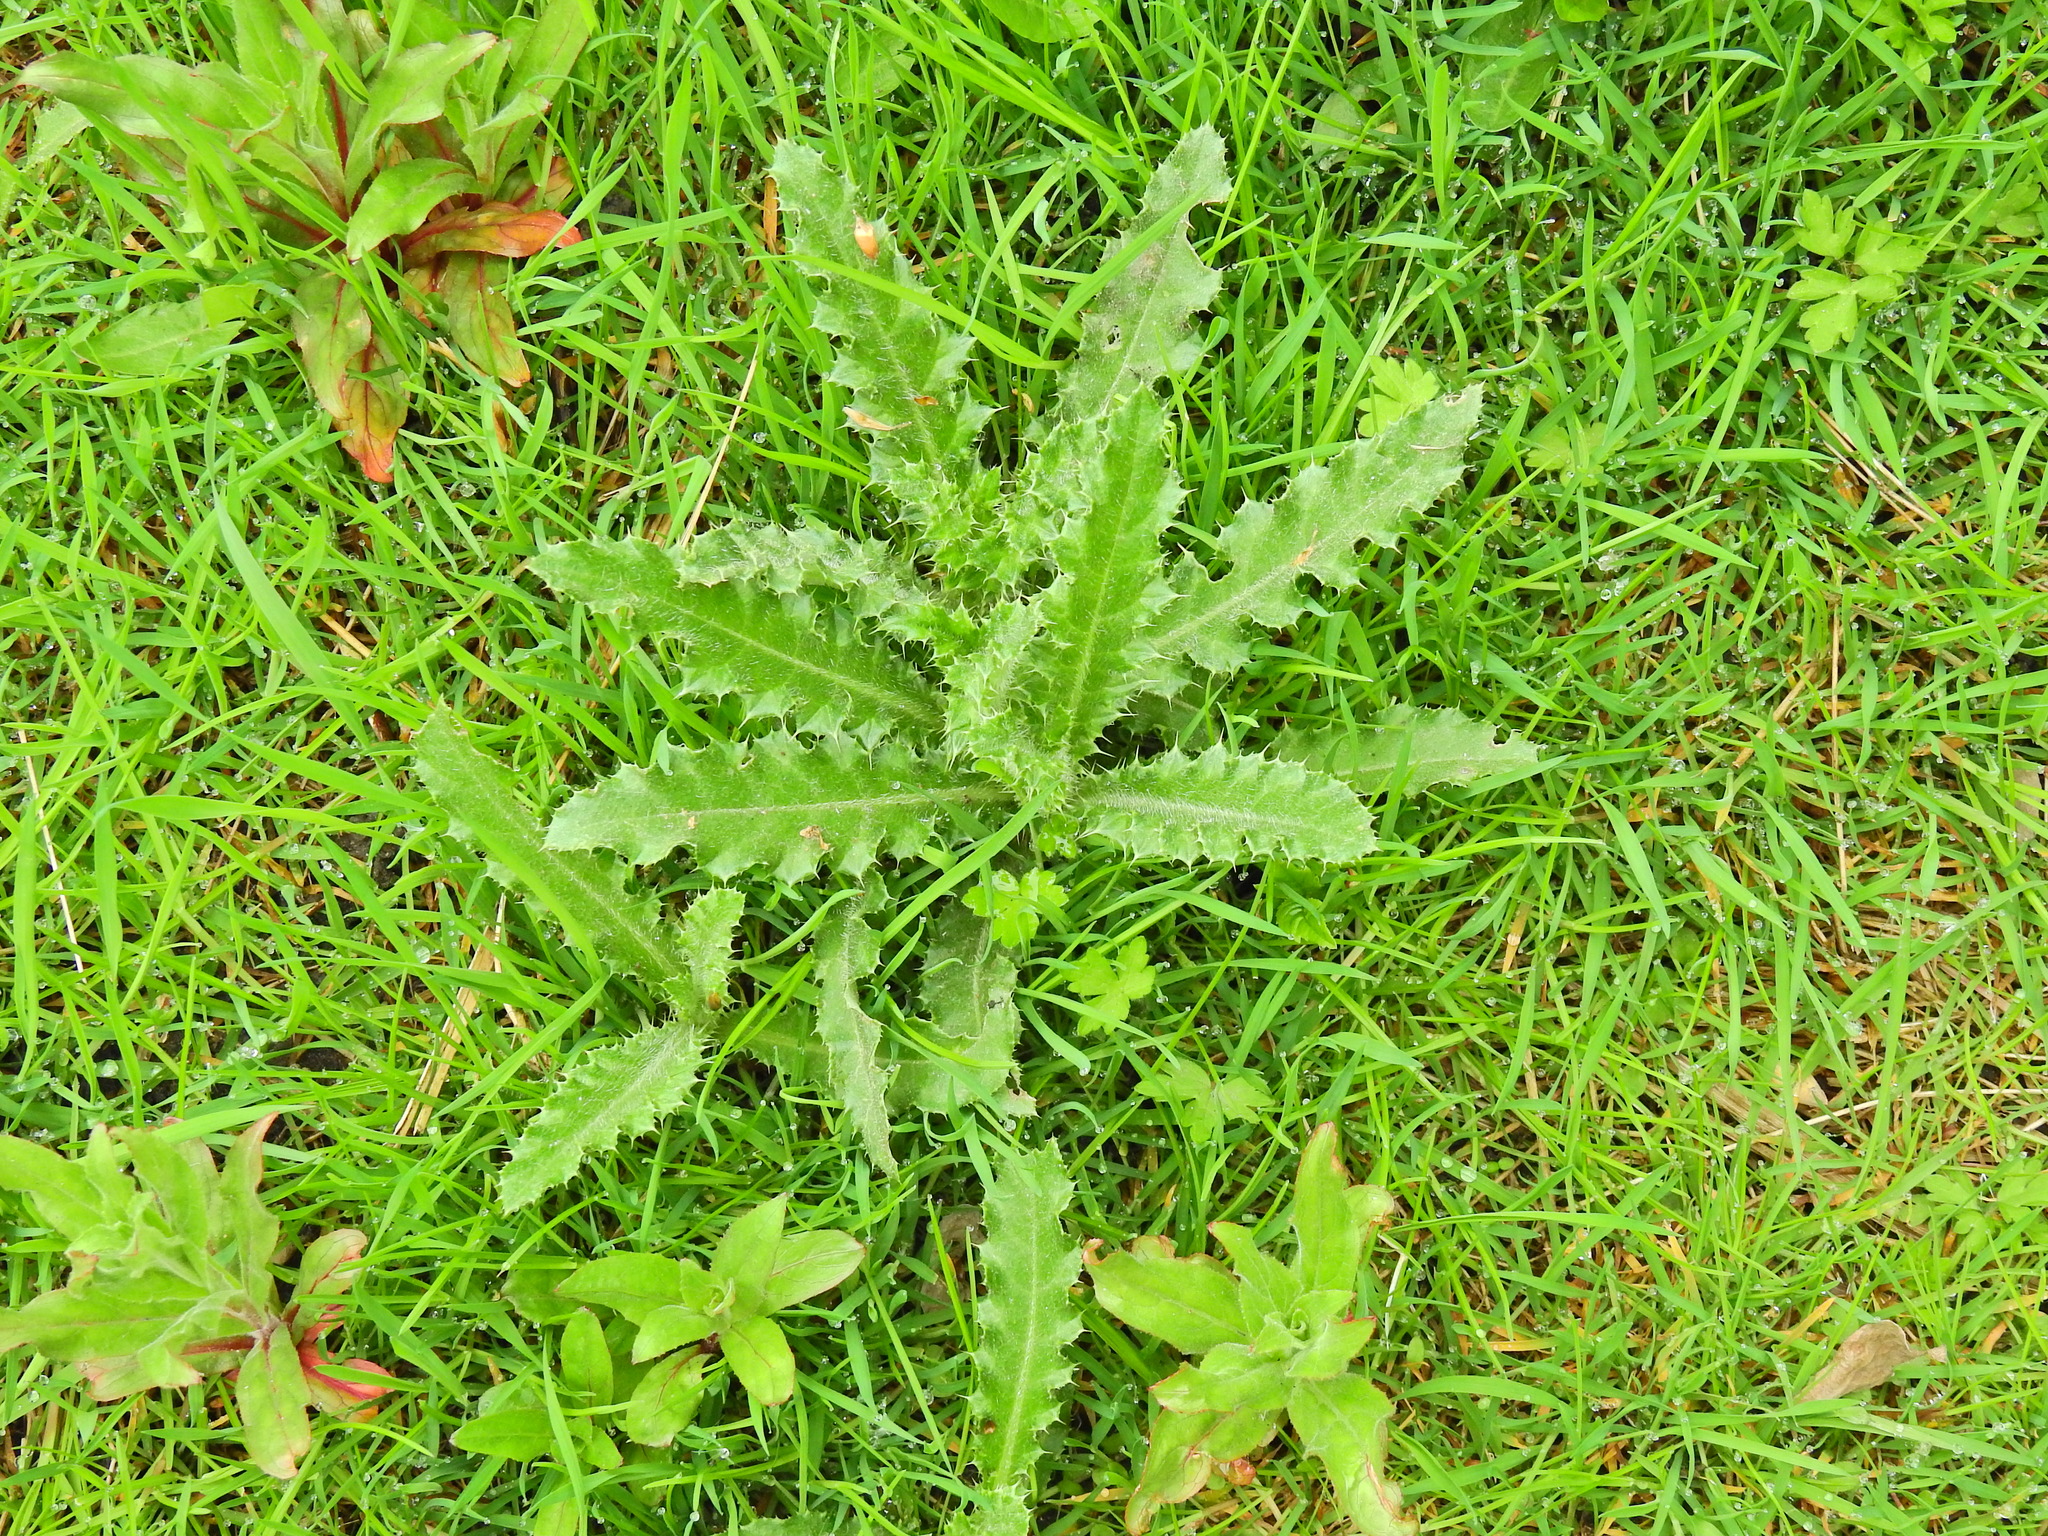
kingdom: Plantae
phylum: Tracheophyta
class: Magnoliopsida
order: Asterales
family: Asteraceae
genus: Cirsium
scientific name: Cirsium arvense
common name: Creeping thistle
